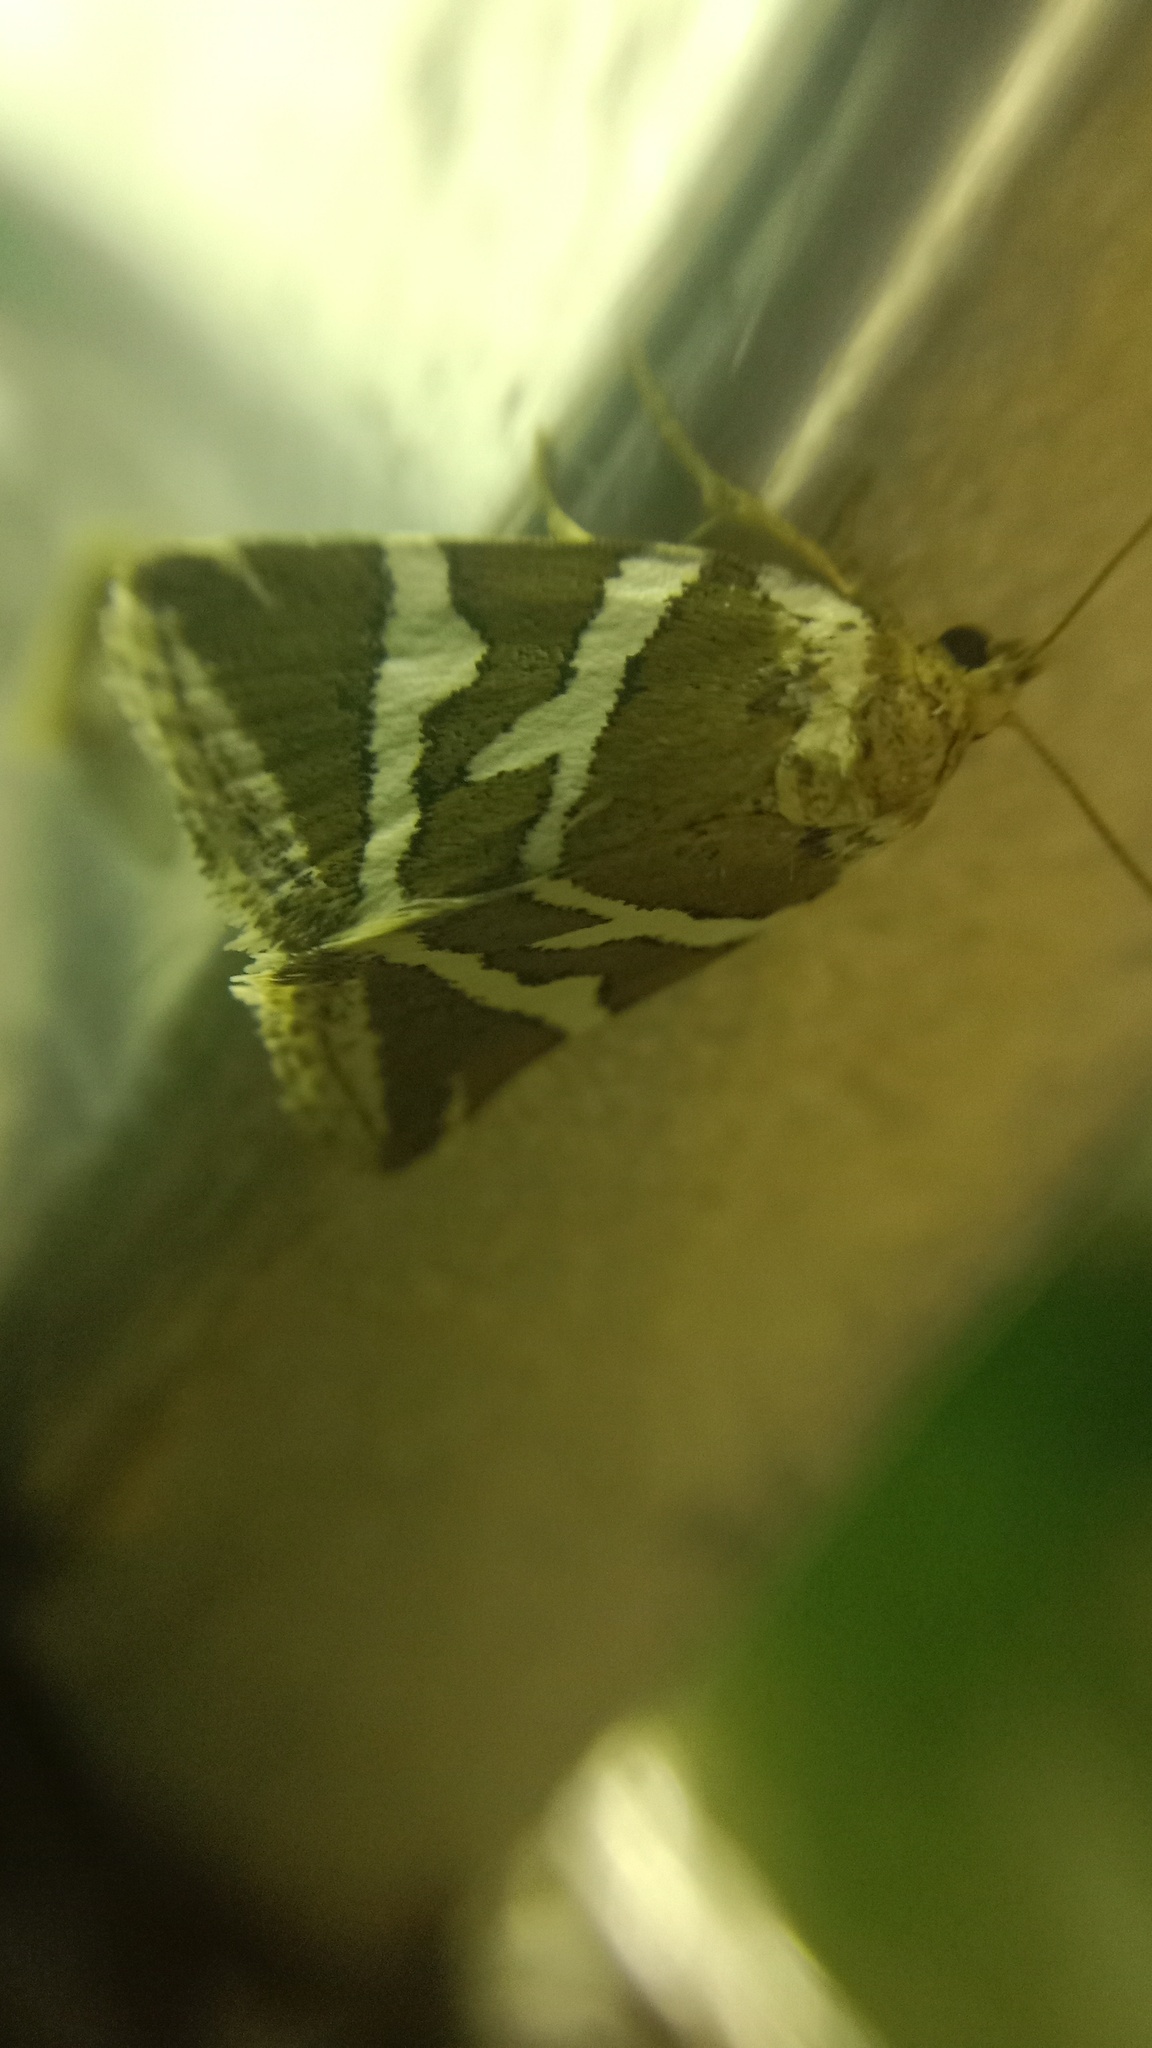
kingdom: Animalia
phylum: Arthropoda
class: Insecta
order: Lepidoptera
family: Noctuidae
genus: Deltote
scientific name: Deltote bankiana
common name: Silver barred
